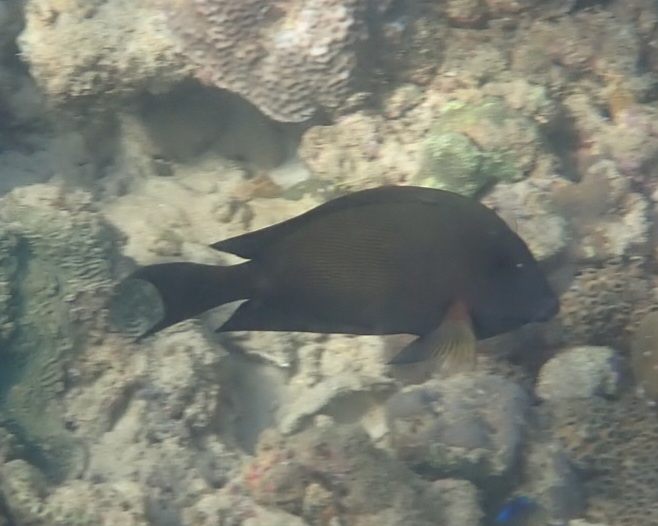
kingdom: Animalia
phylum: Chordata
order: Perciformes
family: Acanthuridae
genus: Ctenochaetus
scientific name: Ctenochaetus striatus
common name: Bristle-toothed surgeonfish
